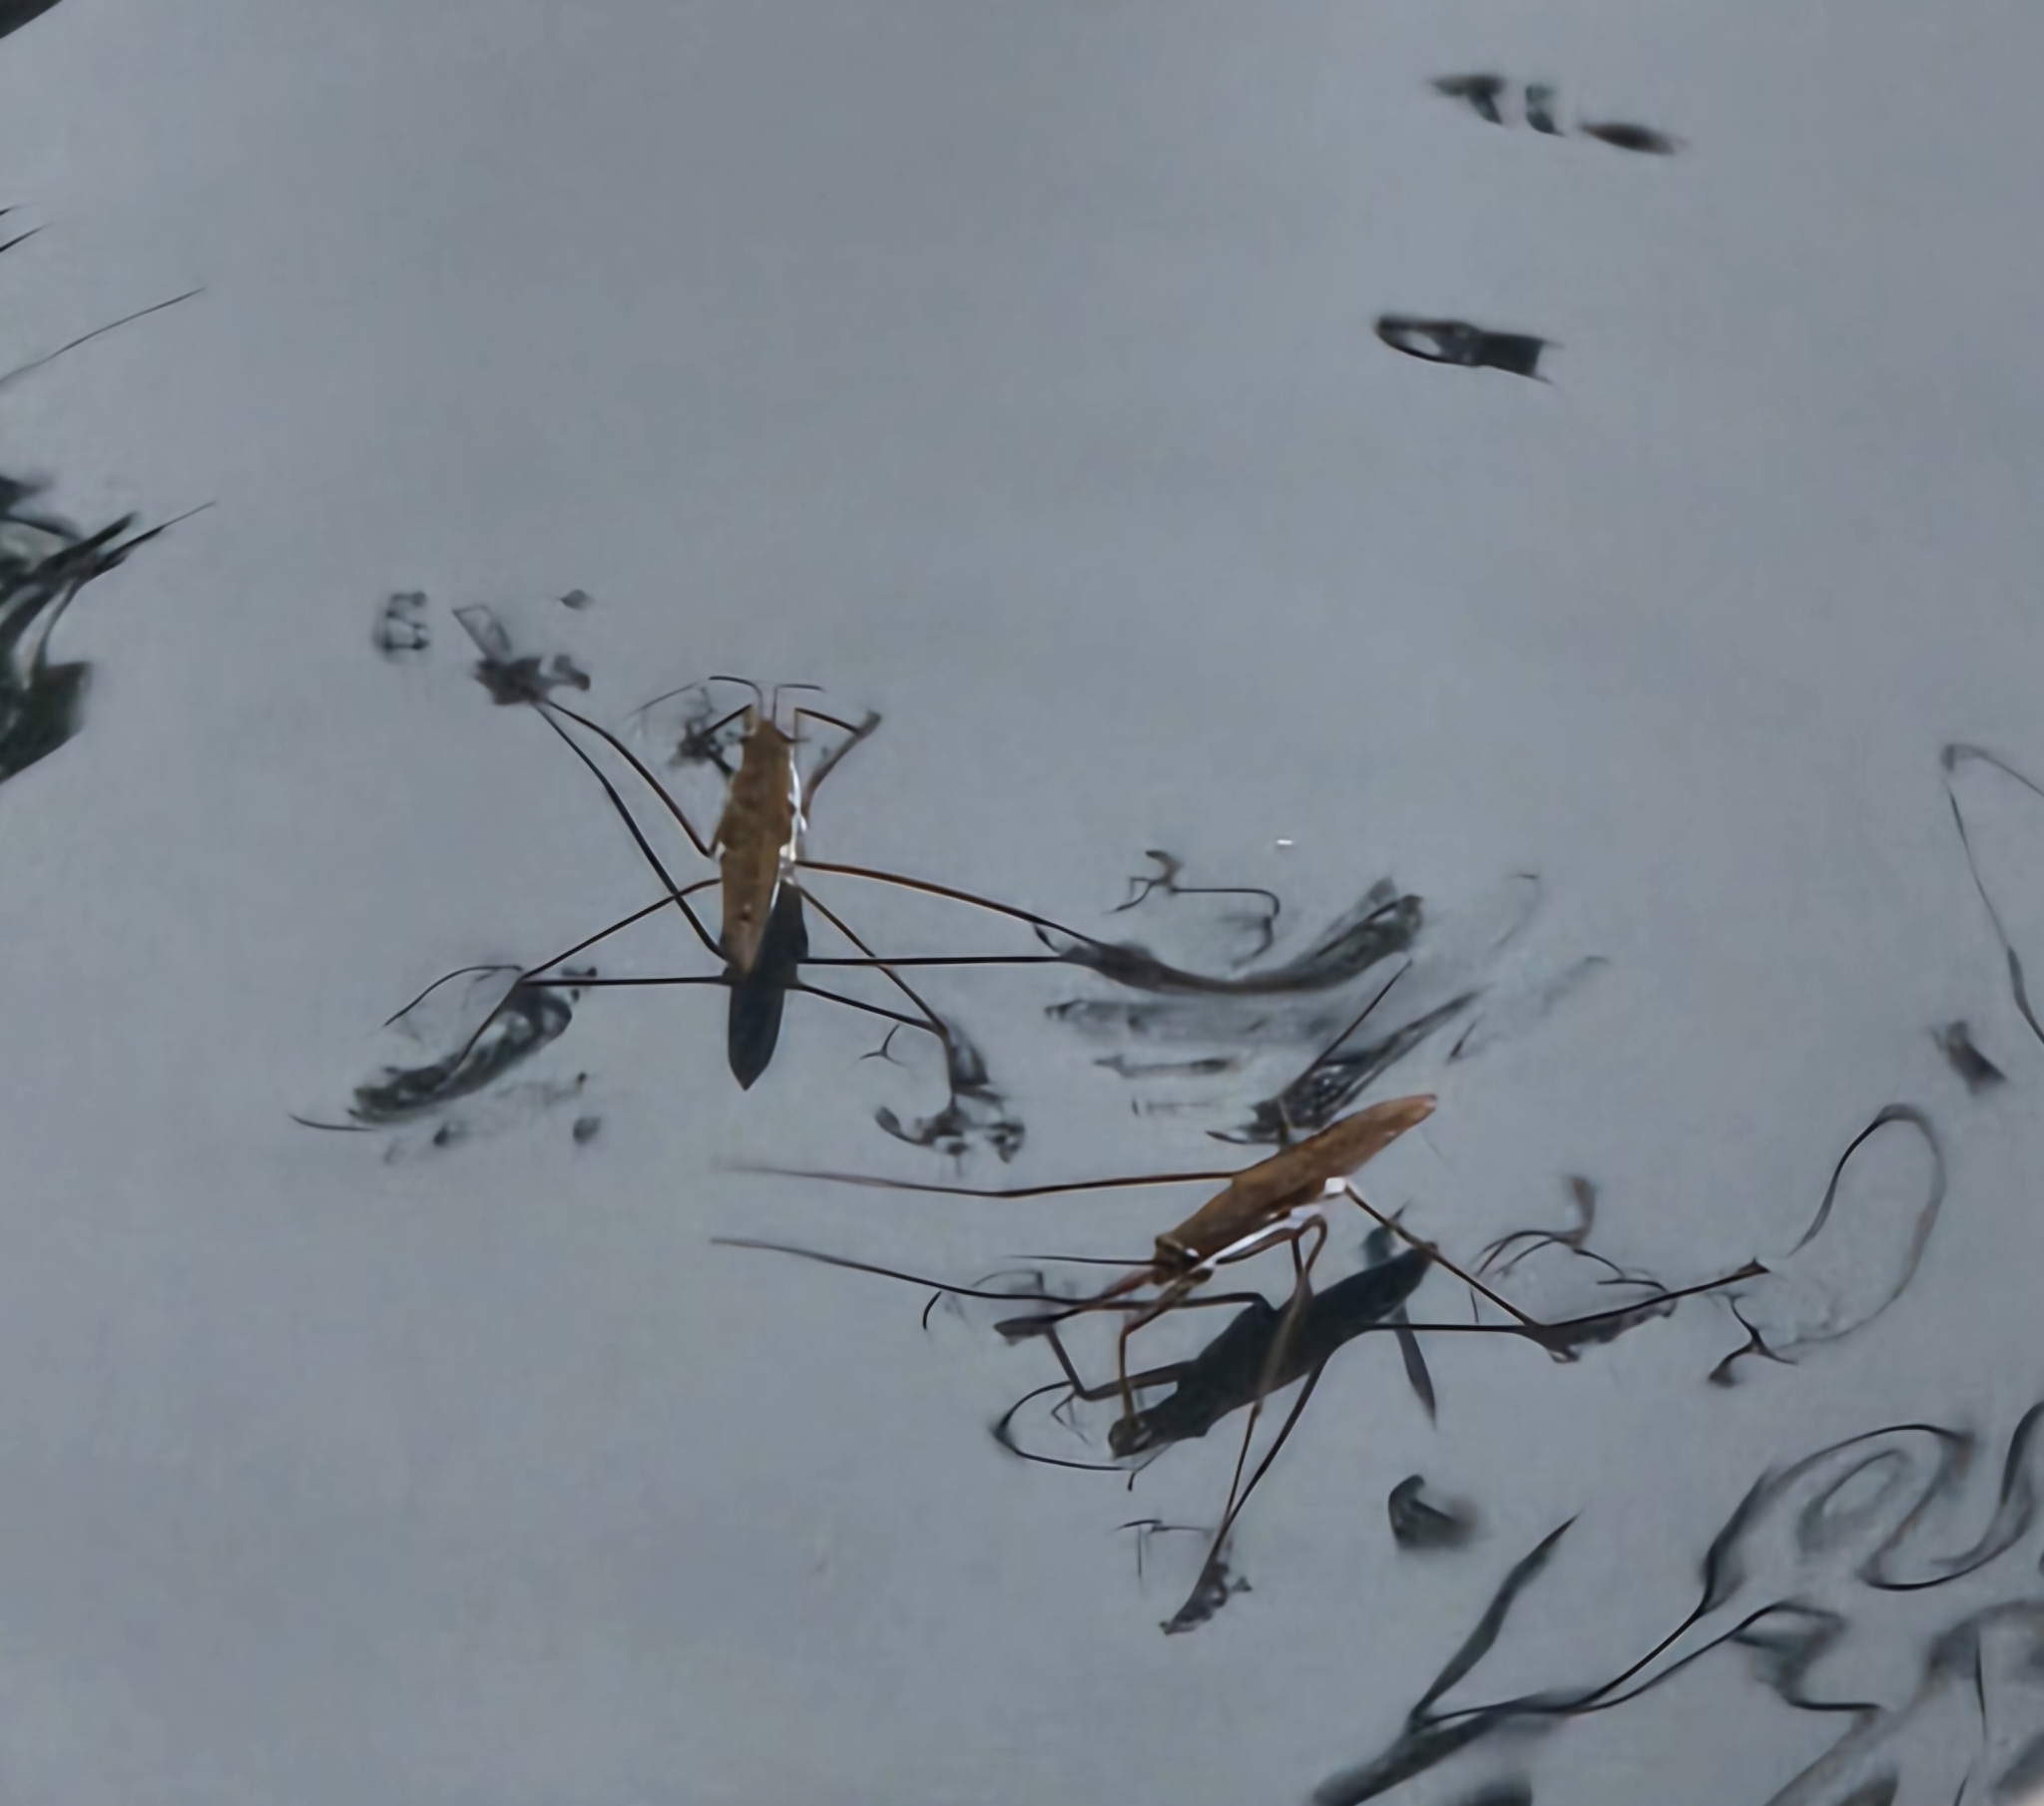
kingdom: Animalia
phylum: Arthropoda
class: Insecta
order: Hemiptera
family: Gerridae
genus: Aquarius
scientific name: Aquarius remigis
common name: Common water strider
